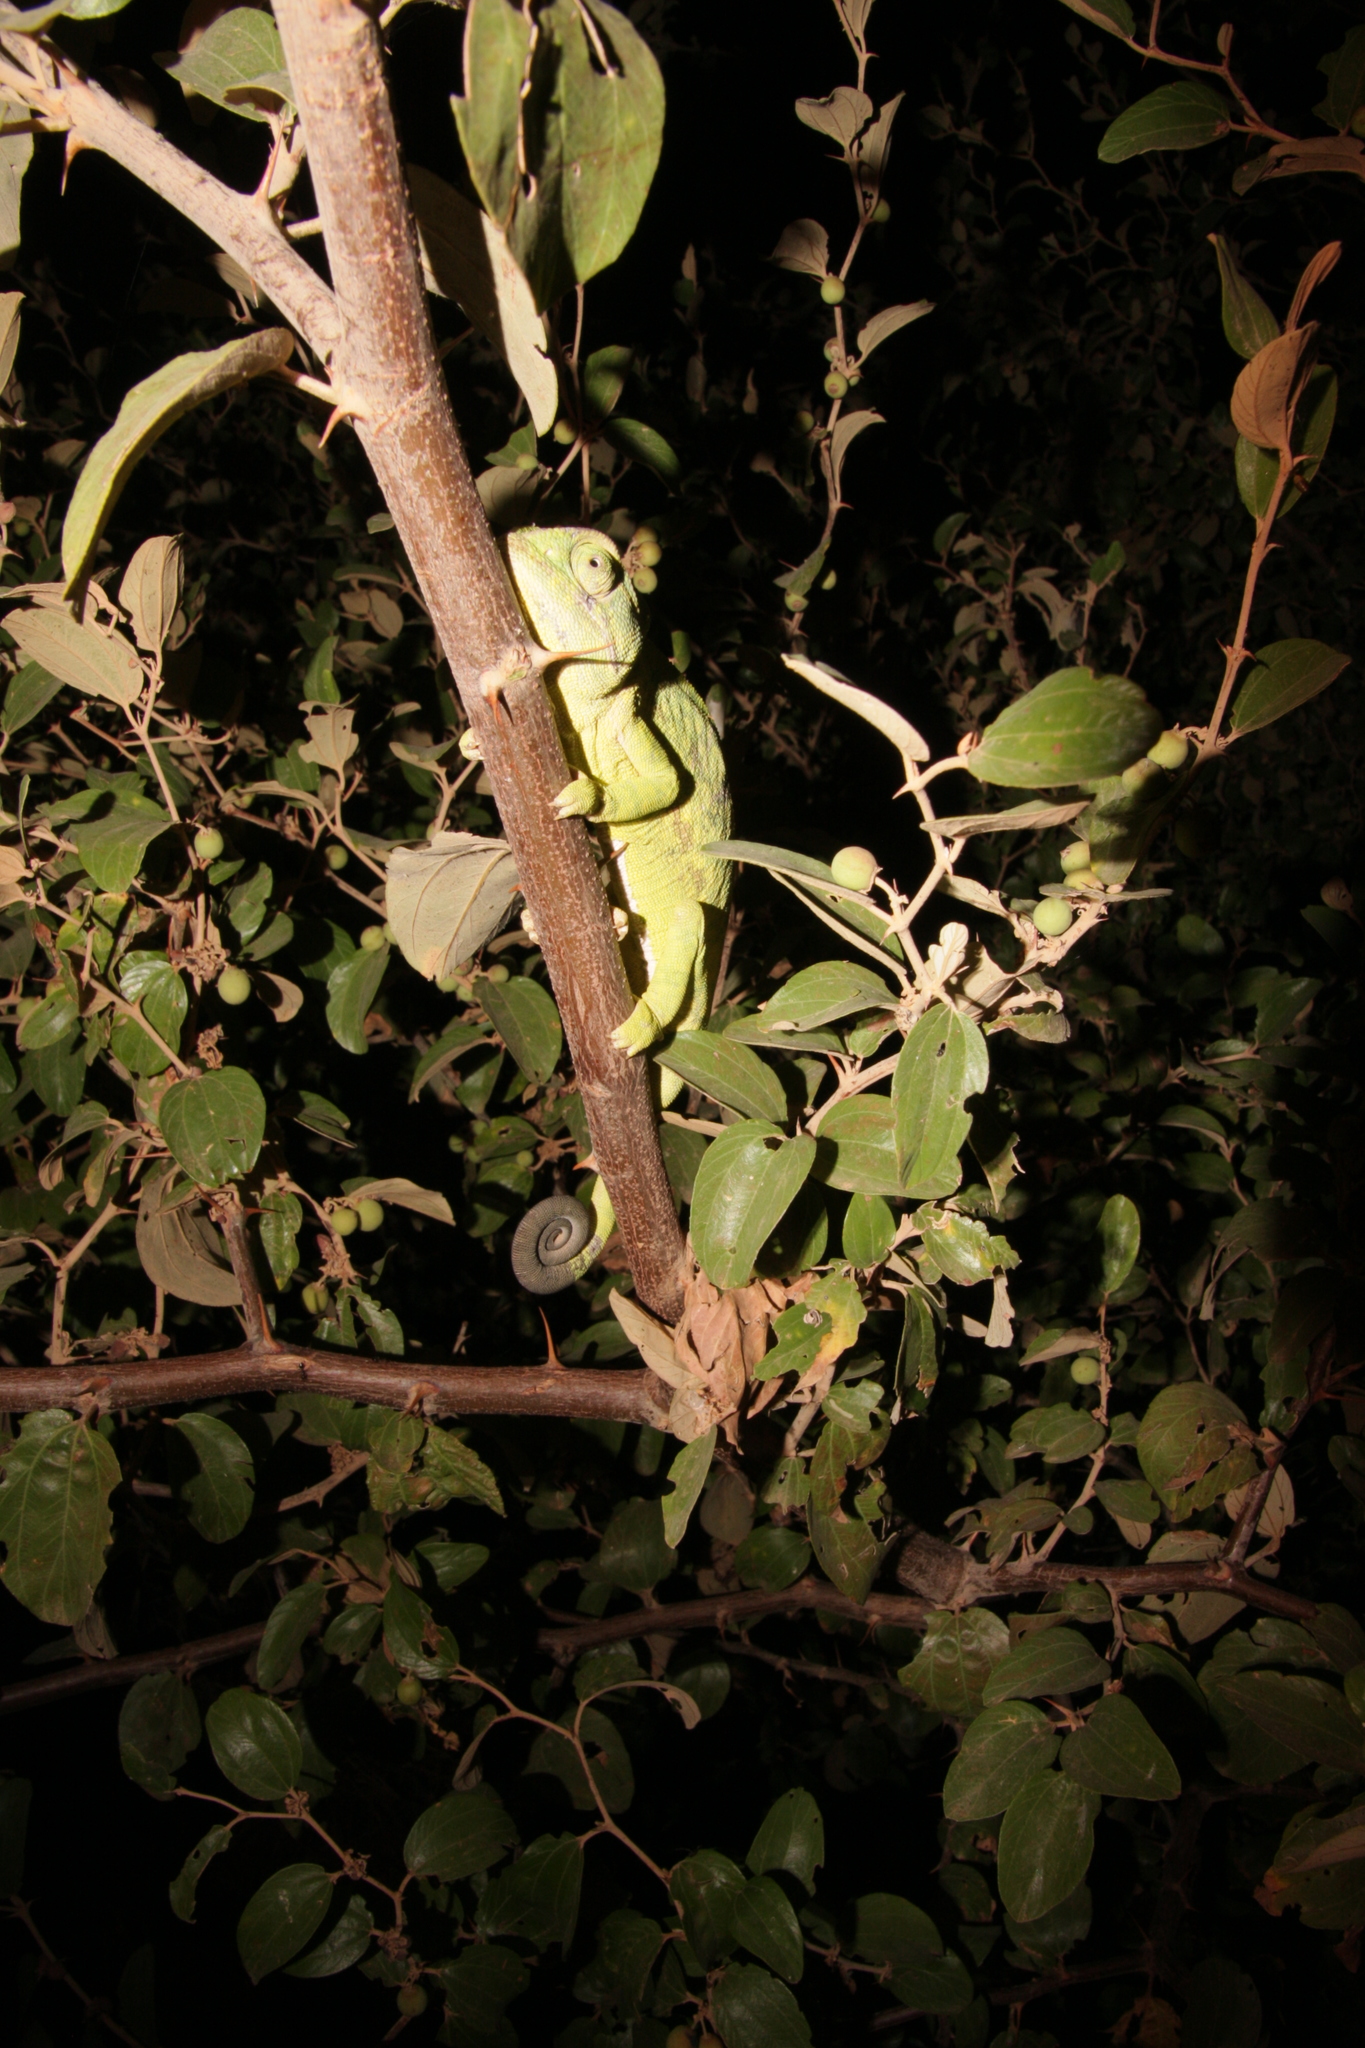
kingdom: Animalia
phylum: Chordata
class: Squamata
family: Chamaeleonidae
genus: Chamaeleo
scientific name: Chamaeleo africanus
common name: African chameleon
